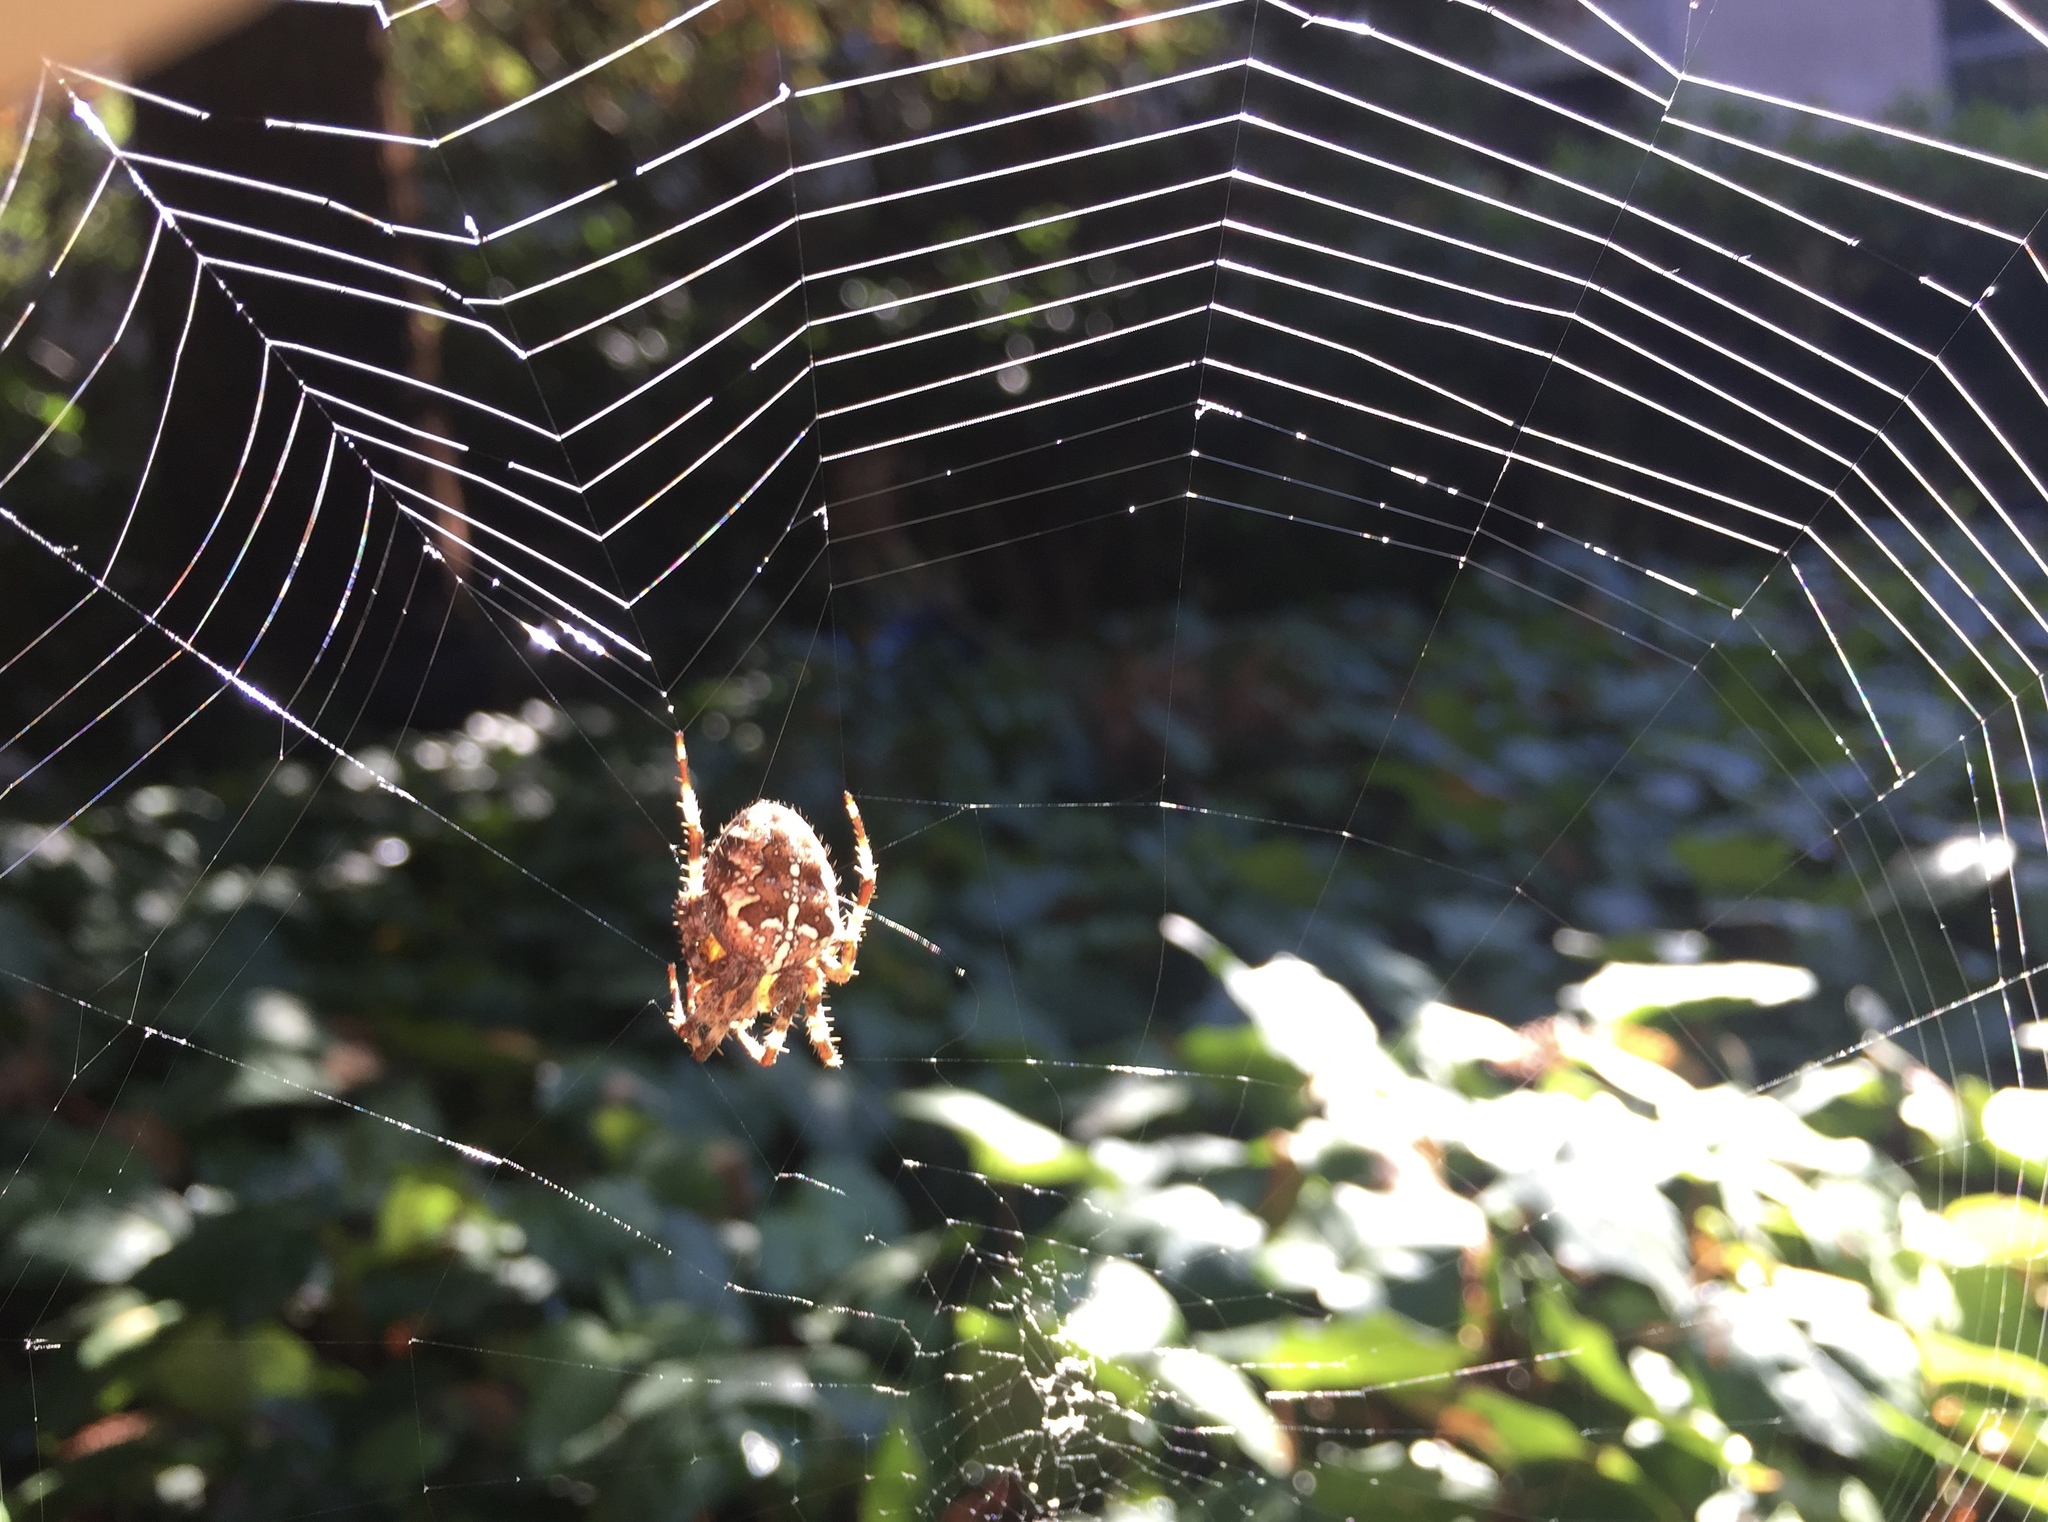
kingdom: Animalia
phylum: Arthropoda
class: Arachnida
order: Araneae
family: Araneidae
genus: Araneus
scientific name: Araneus diadematus
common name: Cross orbweaver
